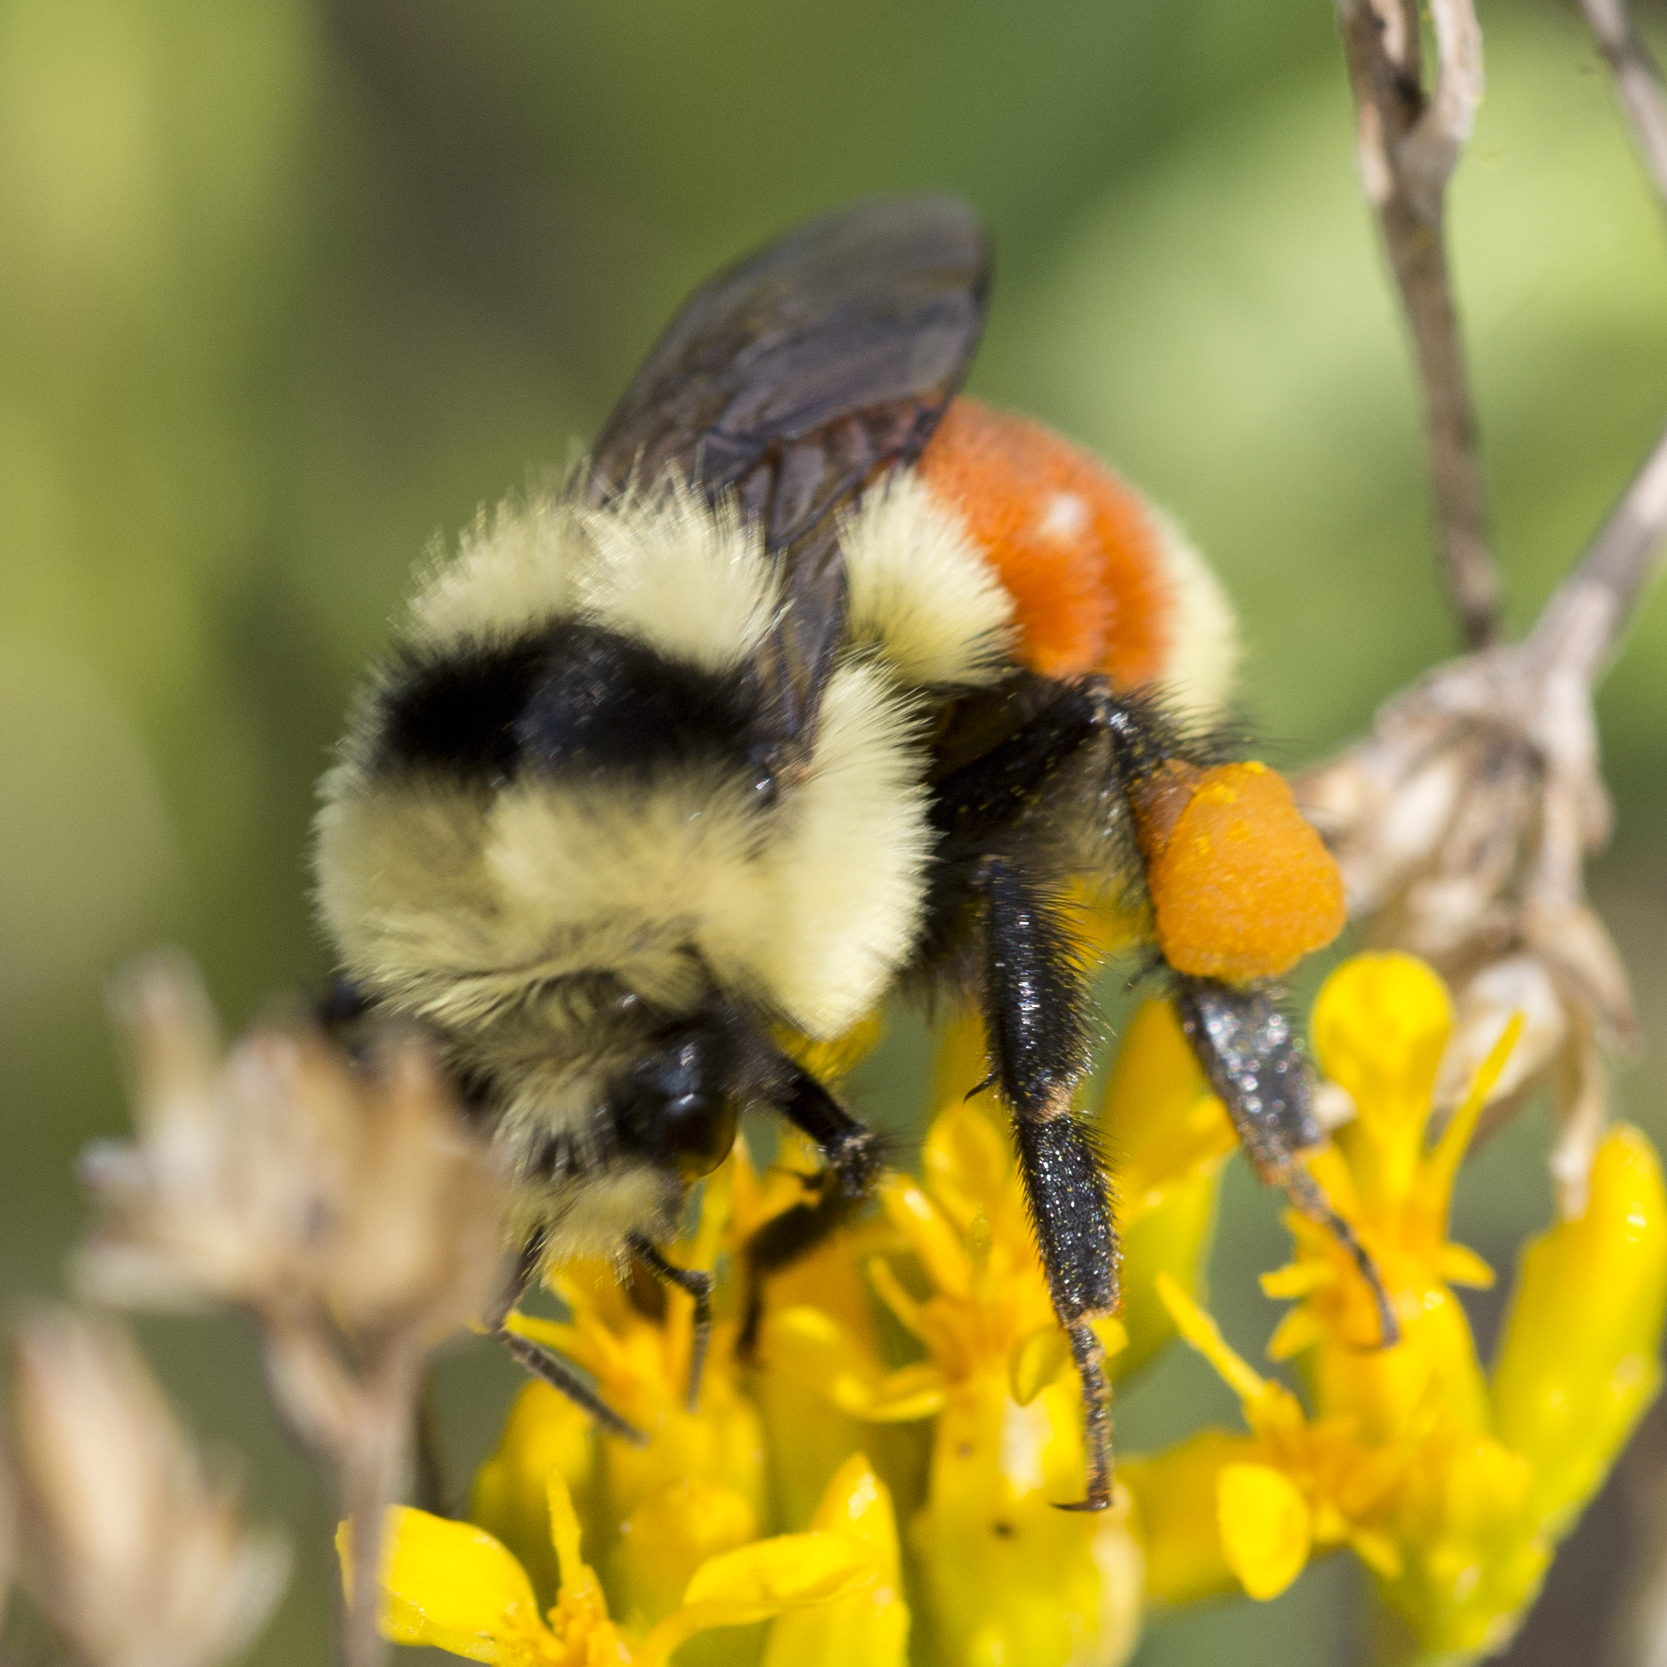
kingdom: Animalia
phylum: Arthropoda
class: Insecta
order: Hymenoptera
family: Apidae
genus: Bombus
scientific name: Bombus huntii
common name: Hunt bumble bee
